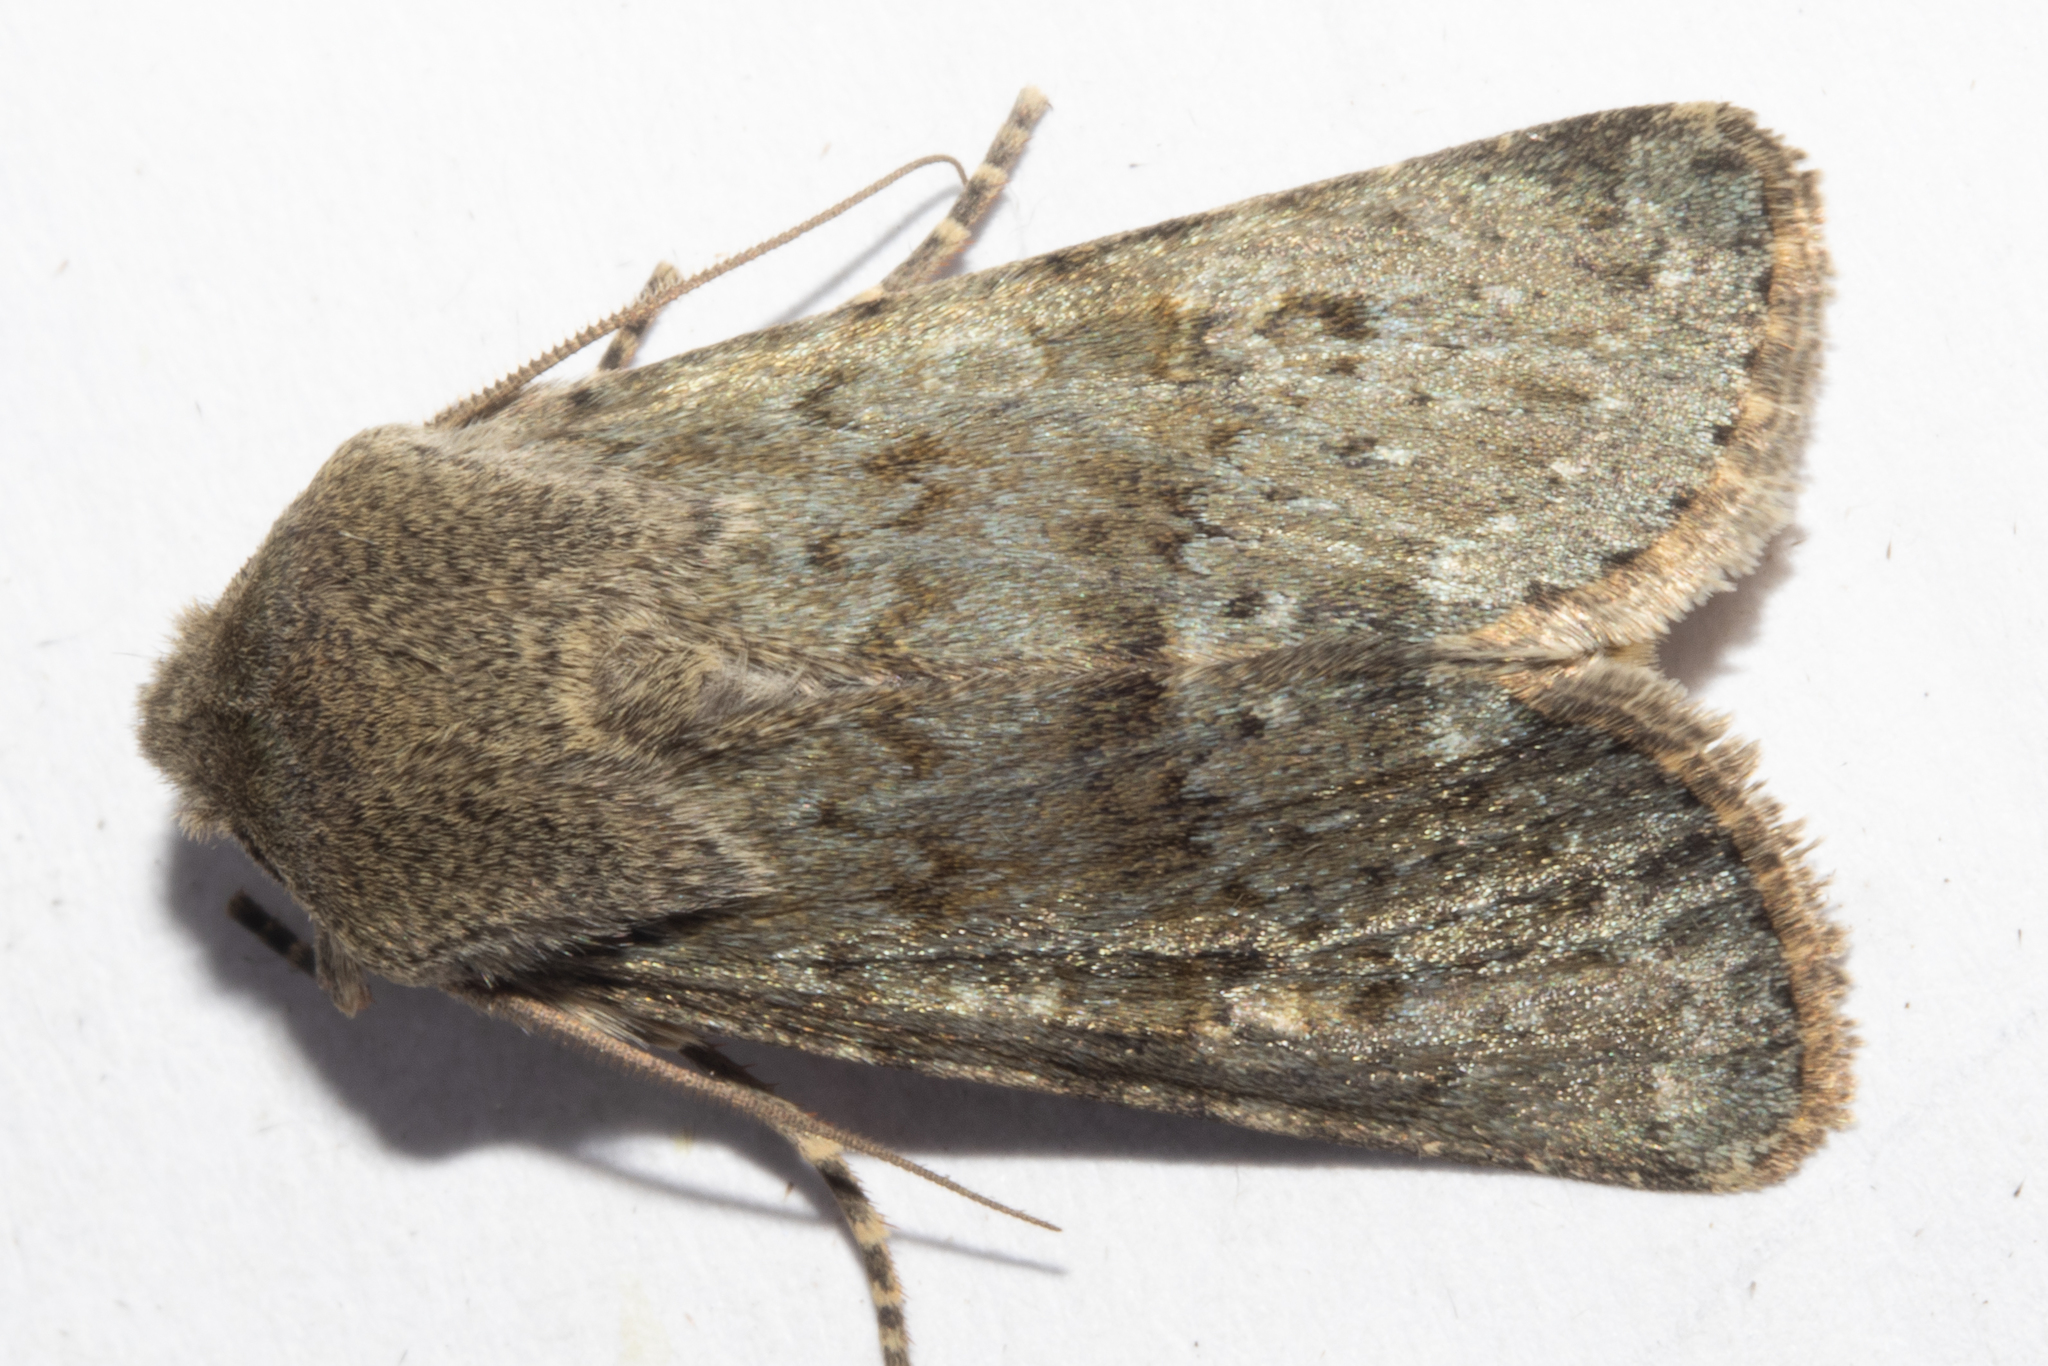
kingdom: Animalia
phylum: Arthropoda
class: Insecta
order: Lepidoptera
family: Noctuidae
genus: Ichneutica
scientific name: Ichneutica moderata
